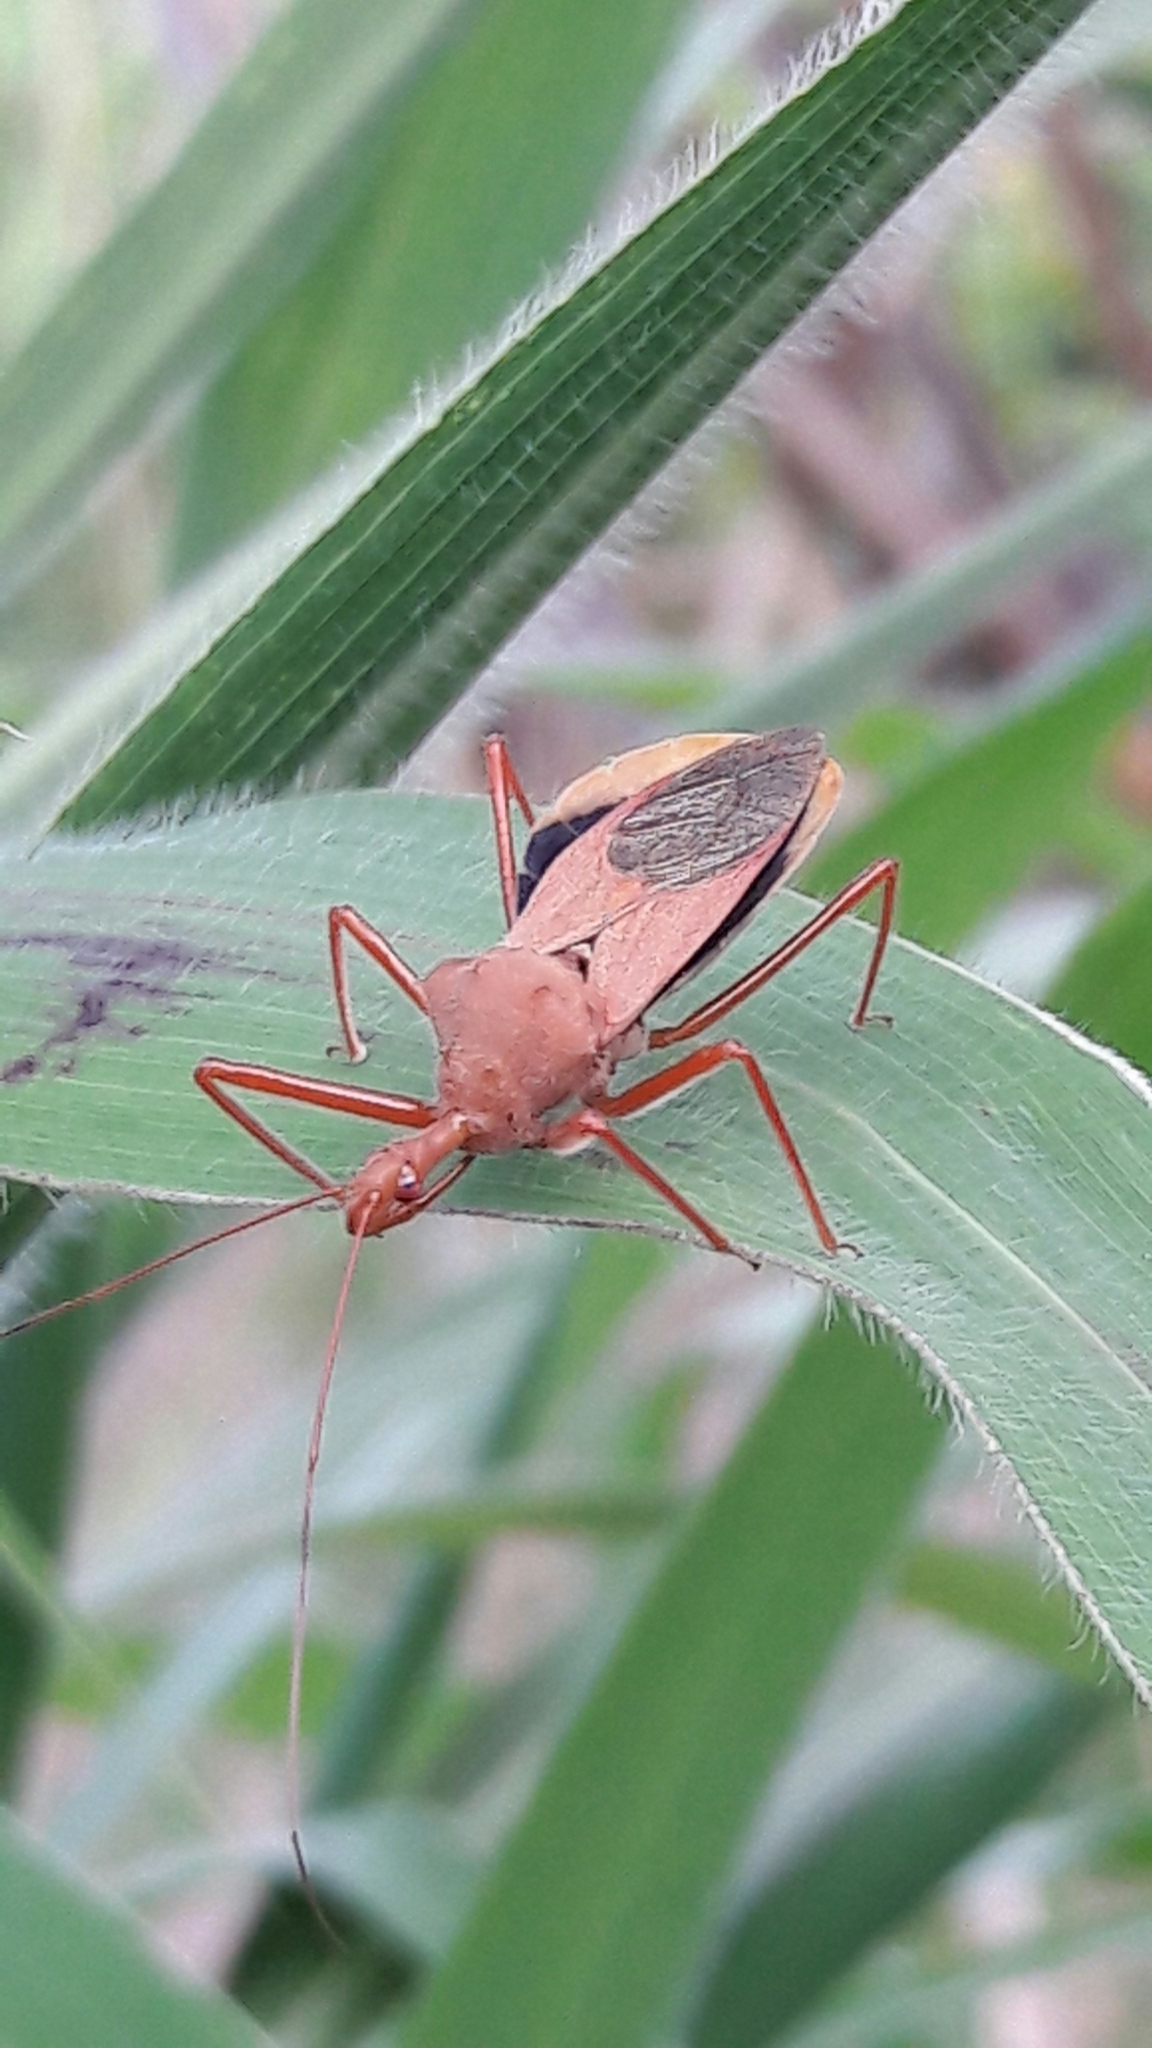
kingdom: Animalia
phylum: Arthropoda
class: Insecta
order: Hemiptera
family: Reduviidae
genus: Montina
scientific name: Montina confusa
